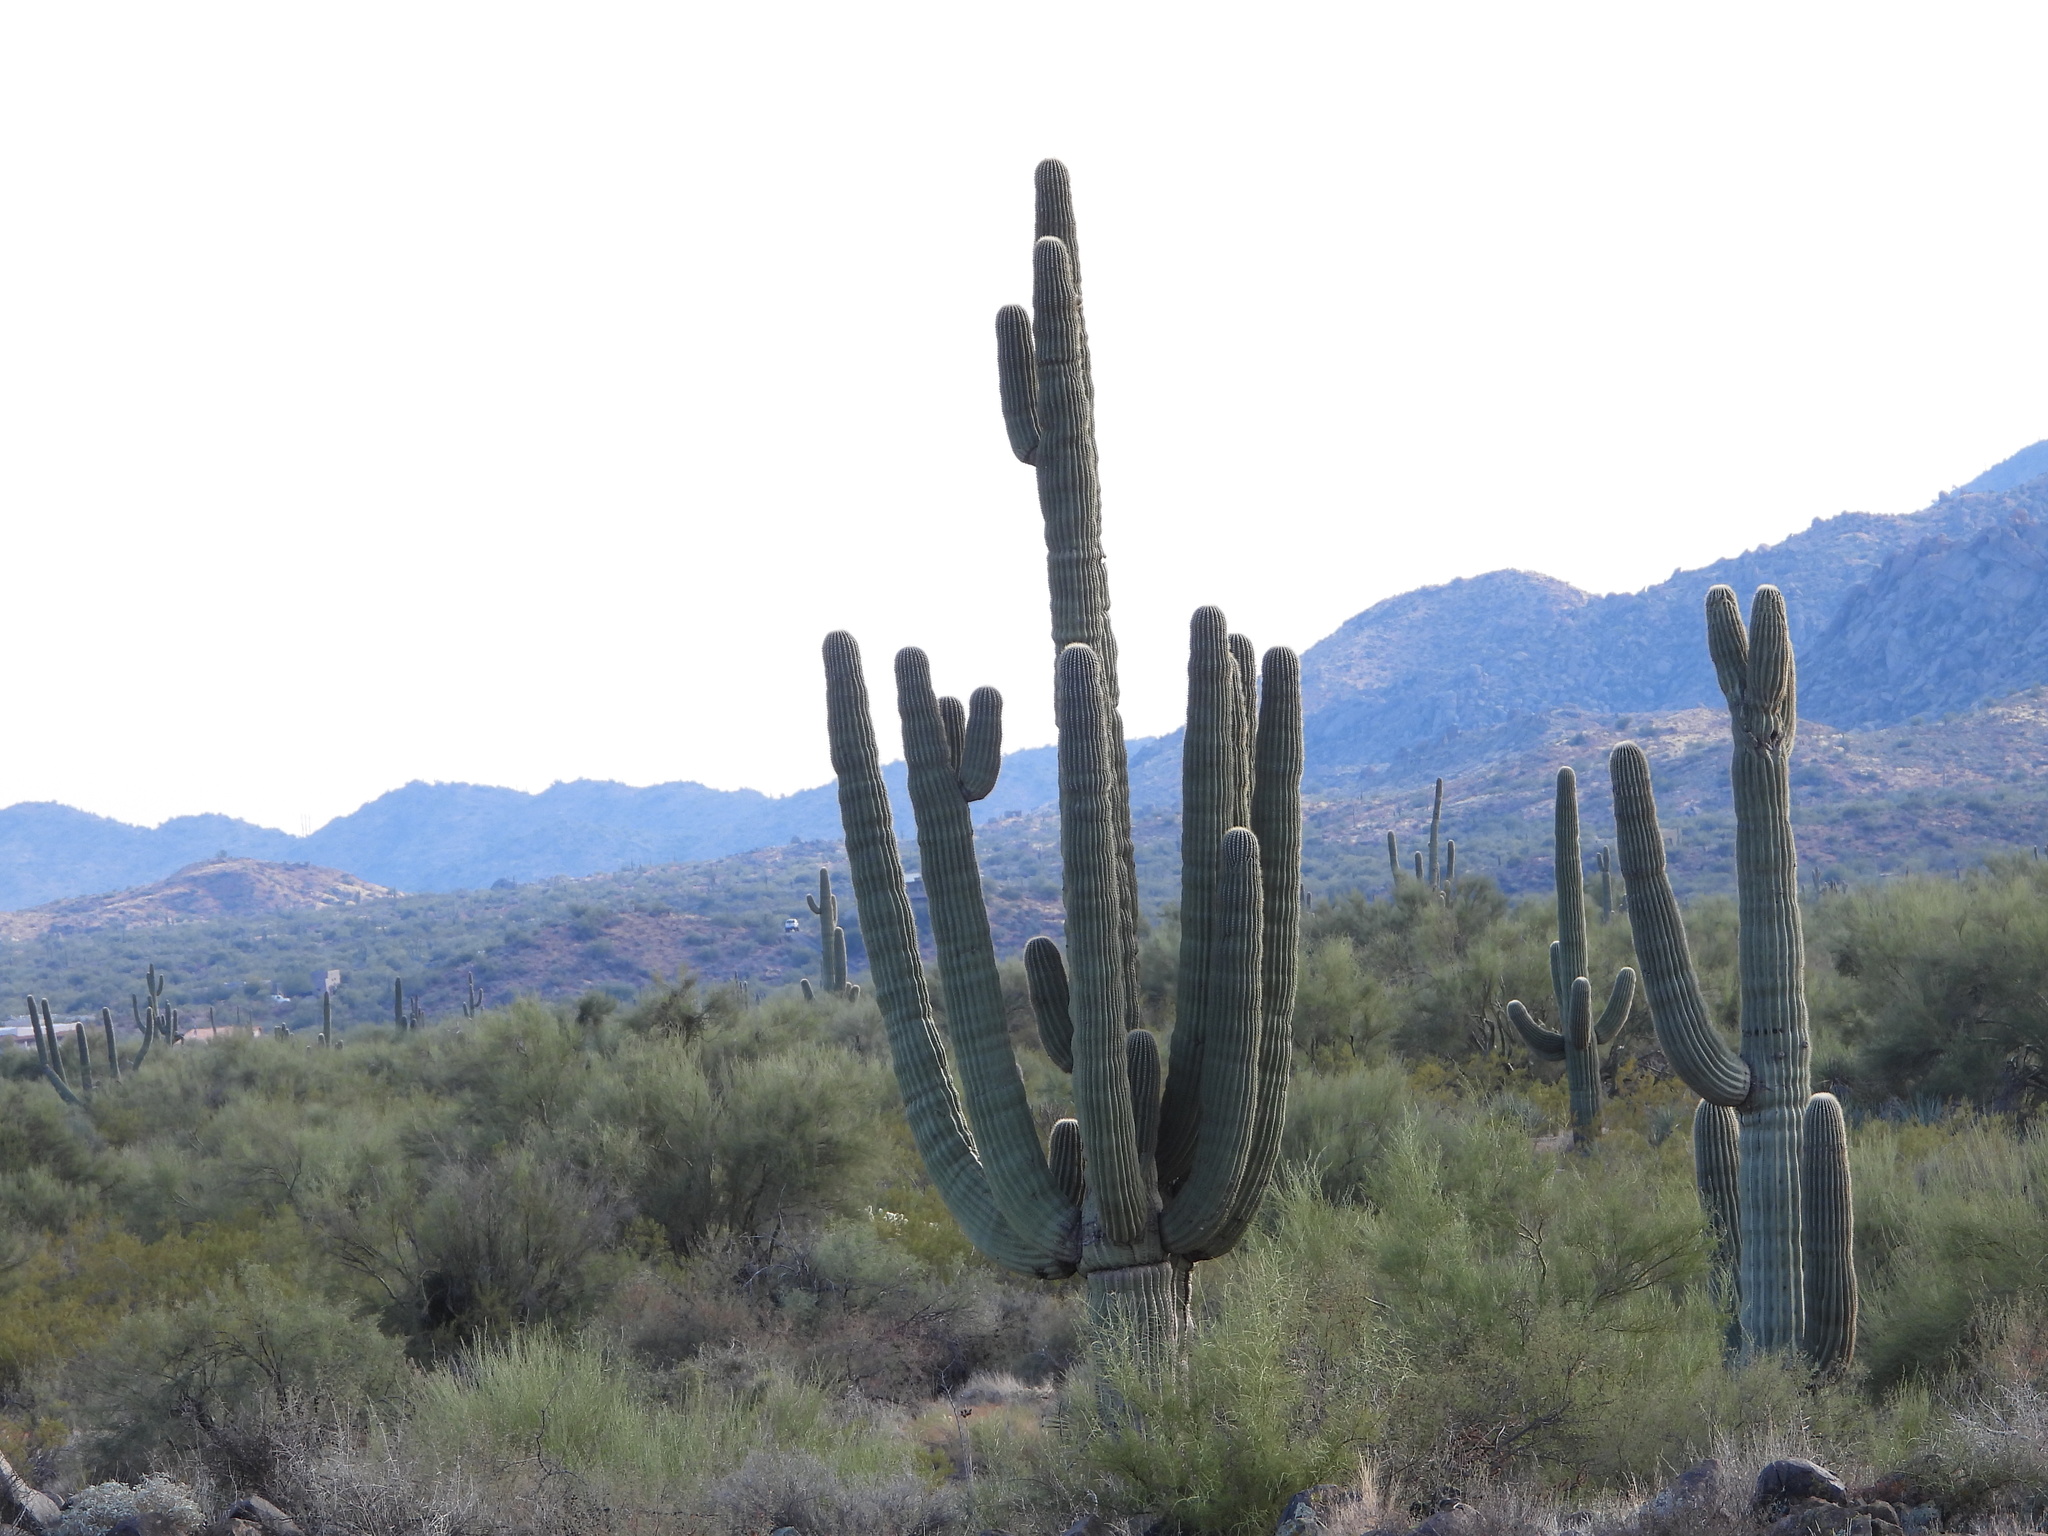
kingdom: Plantae
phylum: Tracheophyta
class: Magnoliopsida
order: Caryophyllales
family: Cactaceae
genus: Carnegiea
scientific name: Carnegiea gigantea
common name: Saguaro
